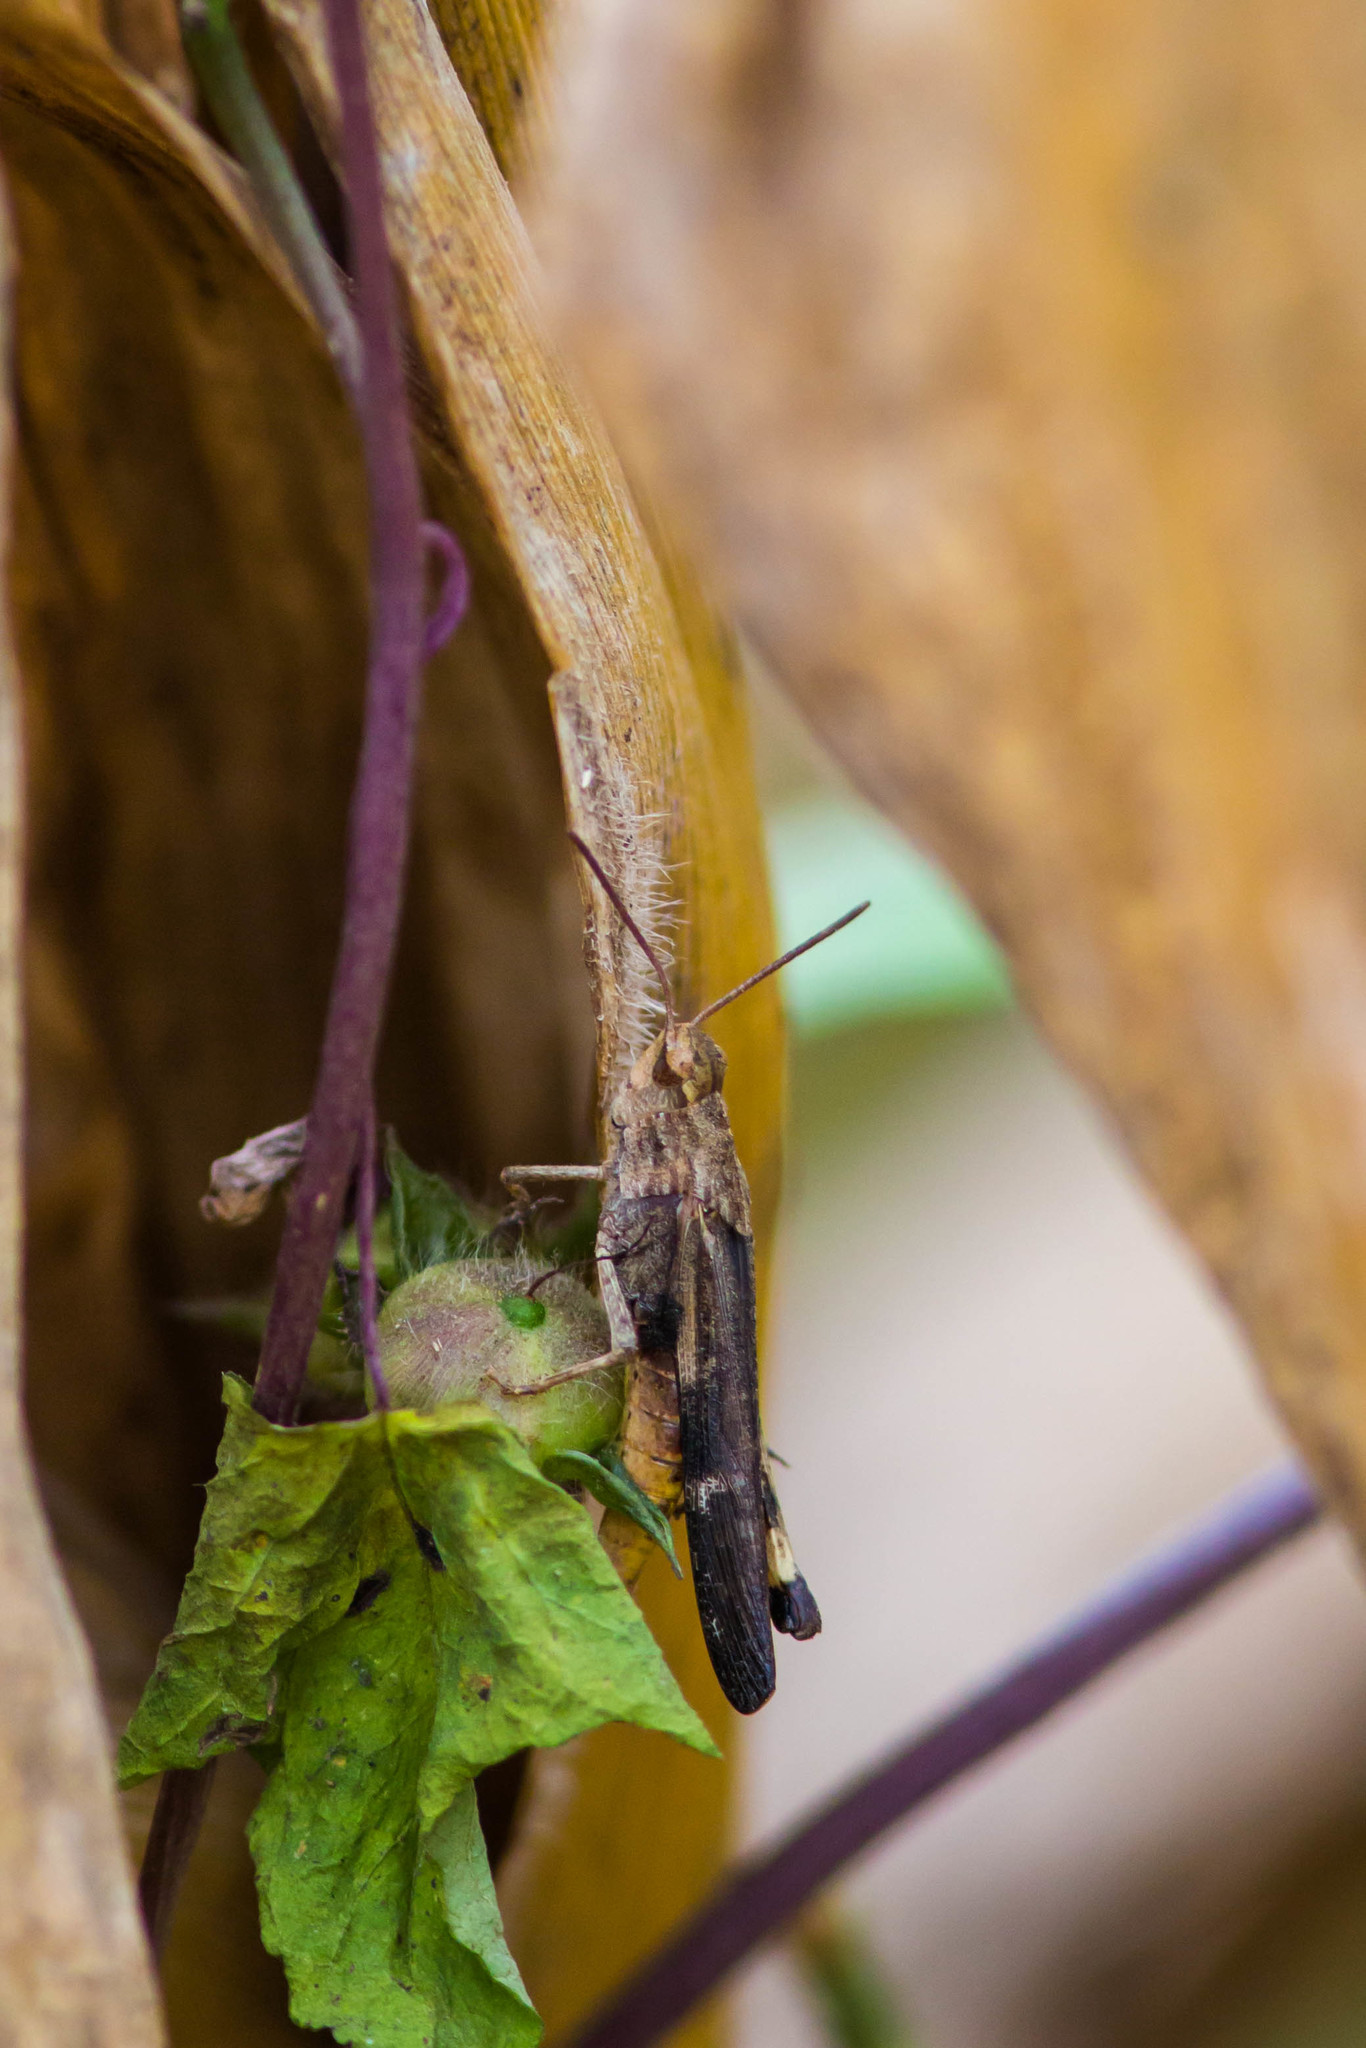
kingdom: Animalia
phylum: Arthropoda
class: Insecta
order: Orthoptera
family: Acrididae
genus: Chortophaga
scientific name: Chortophaga viridifasciata
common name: Green-striped grasshopper
